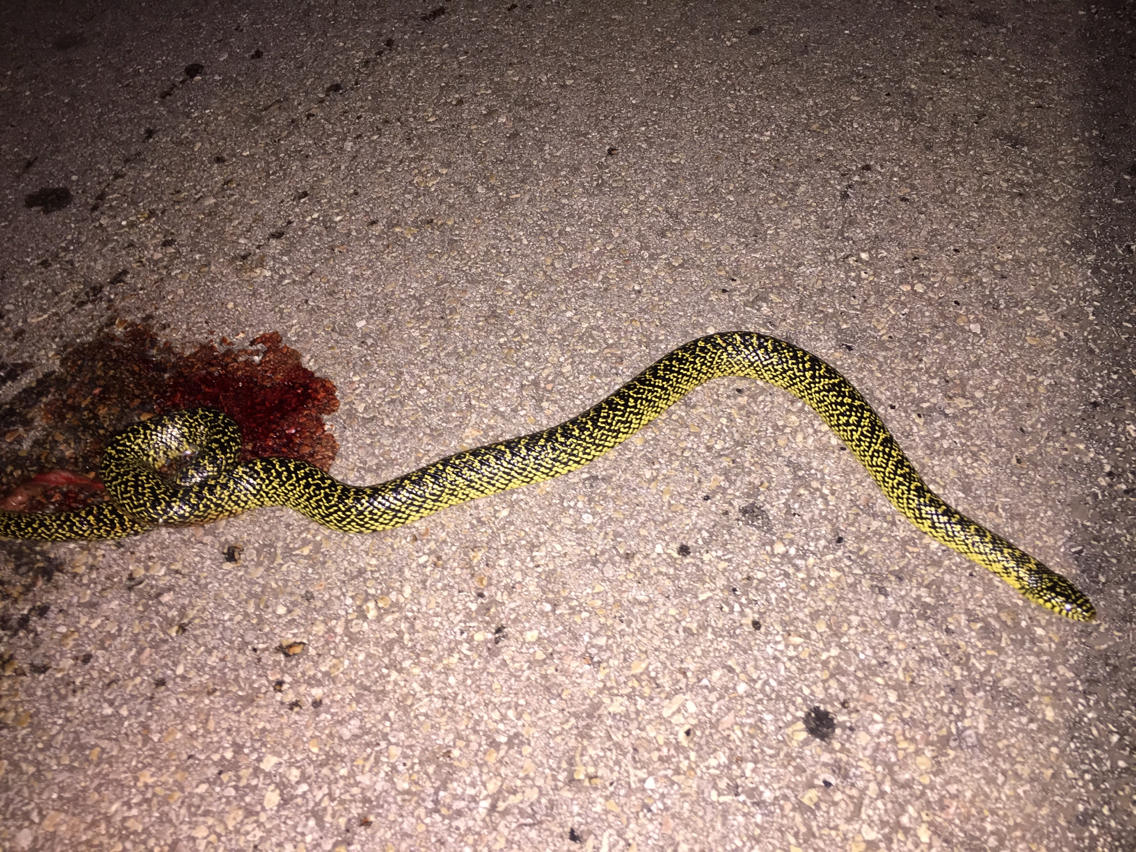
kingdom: Animalia
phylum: Chordata
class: Squamata
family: Colubridae
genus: Lampropeltis
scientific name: Lampropeltis holbrooki
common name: Speckled kingsnake
